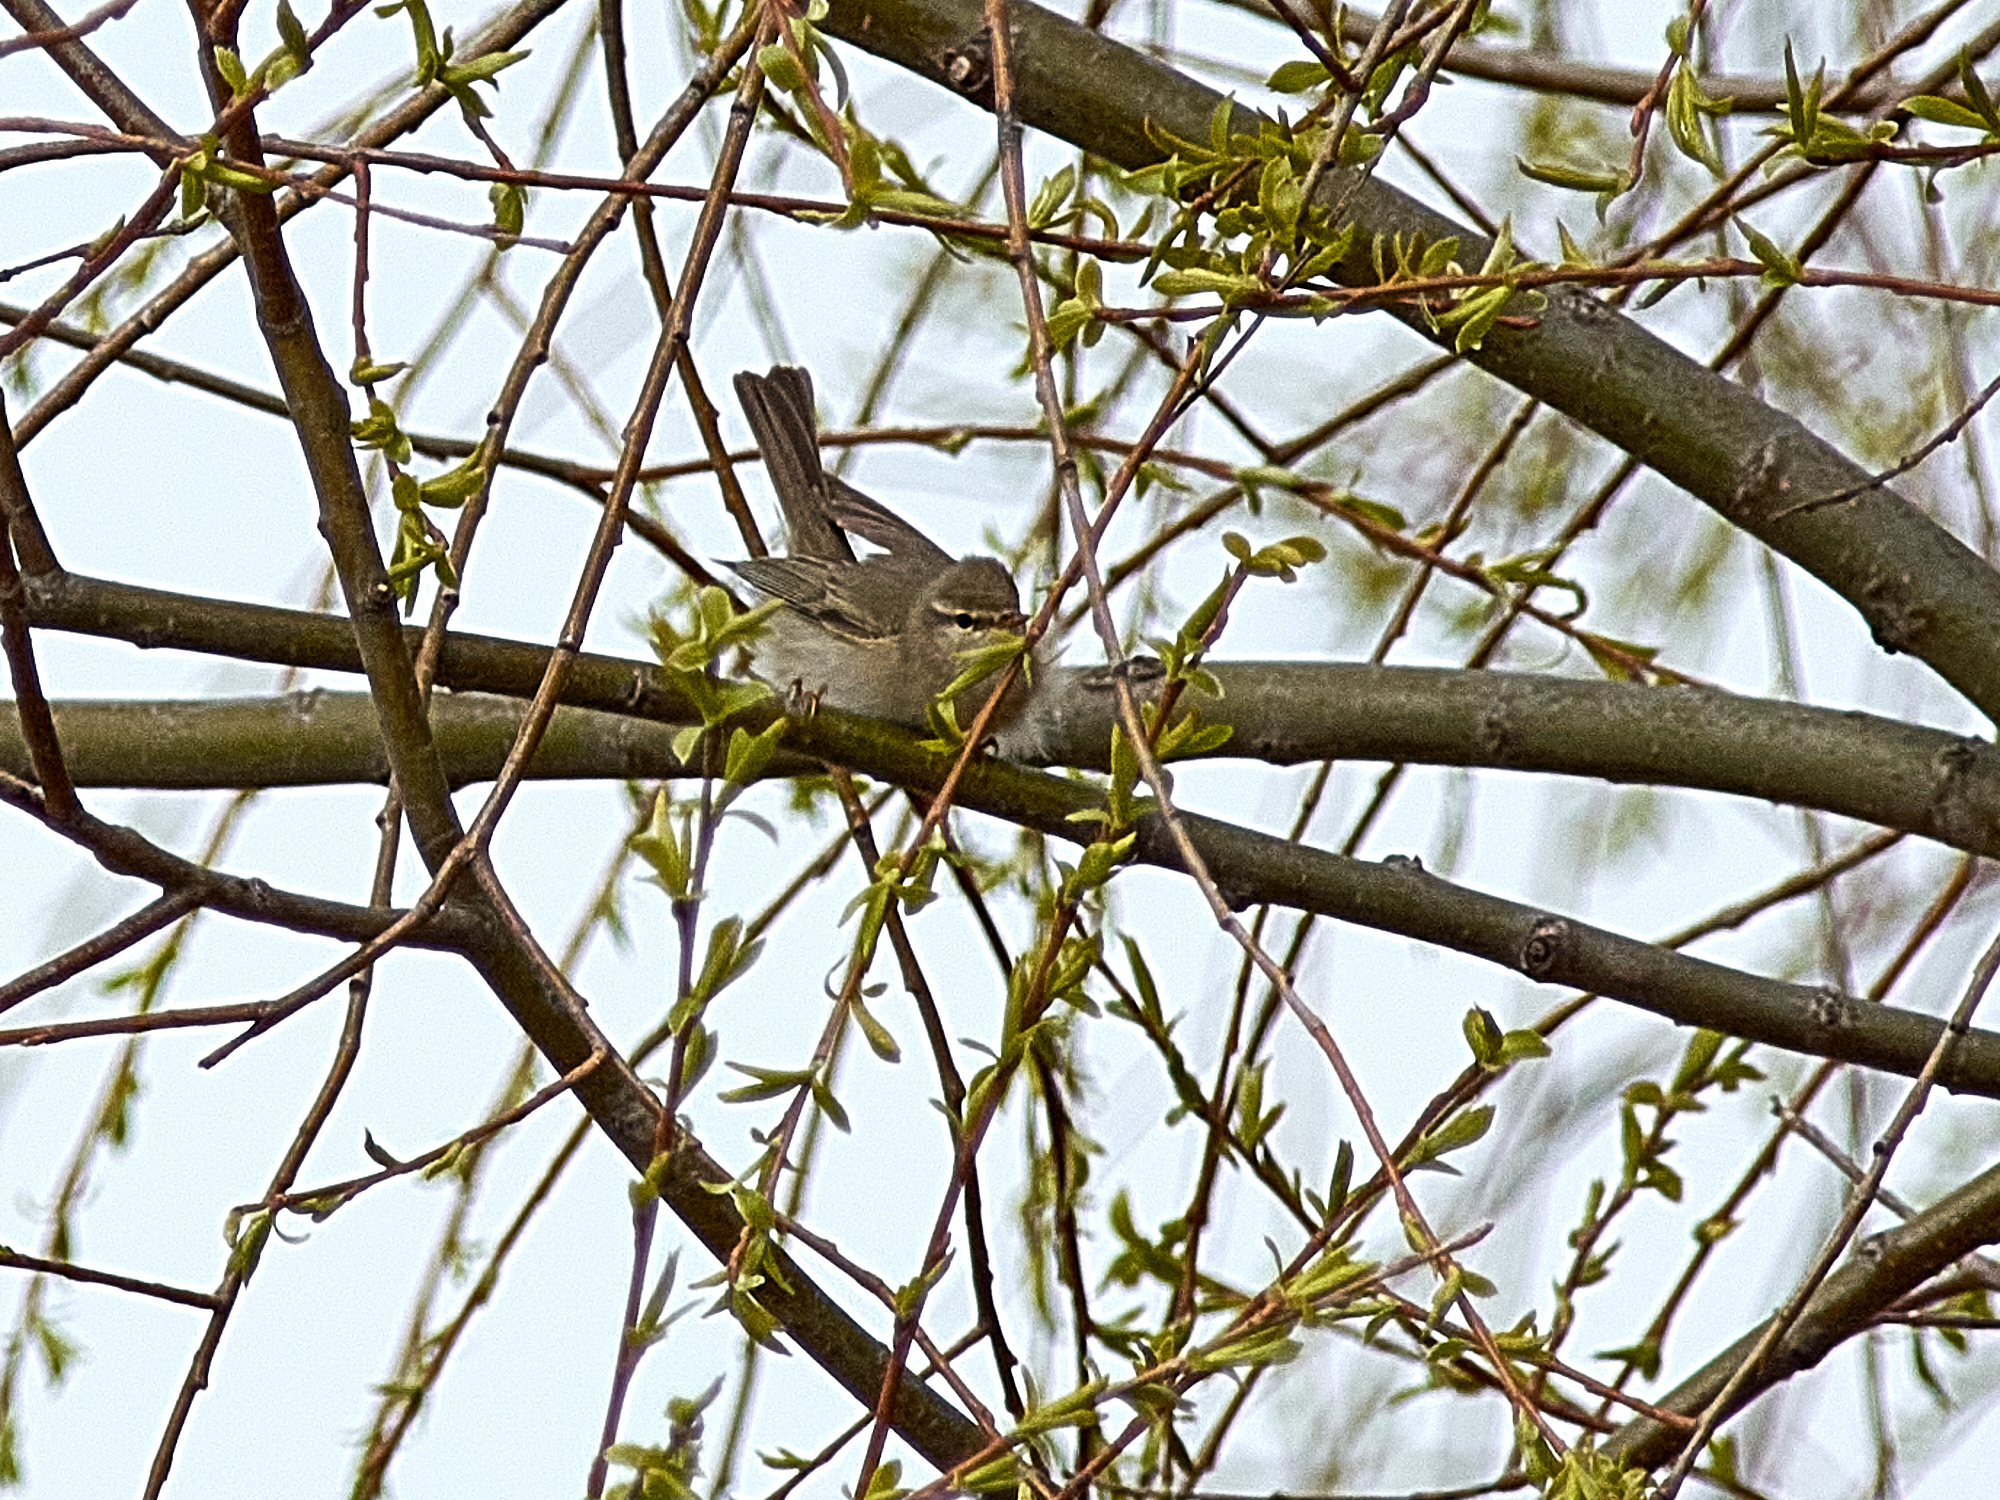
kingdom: Animalia
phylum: Chordata
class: Aves
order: Passeriformes
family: Phylloscopidae
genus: Phylloscopus
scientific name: Phylloscopus trochilus
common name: Willow warbler
